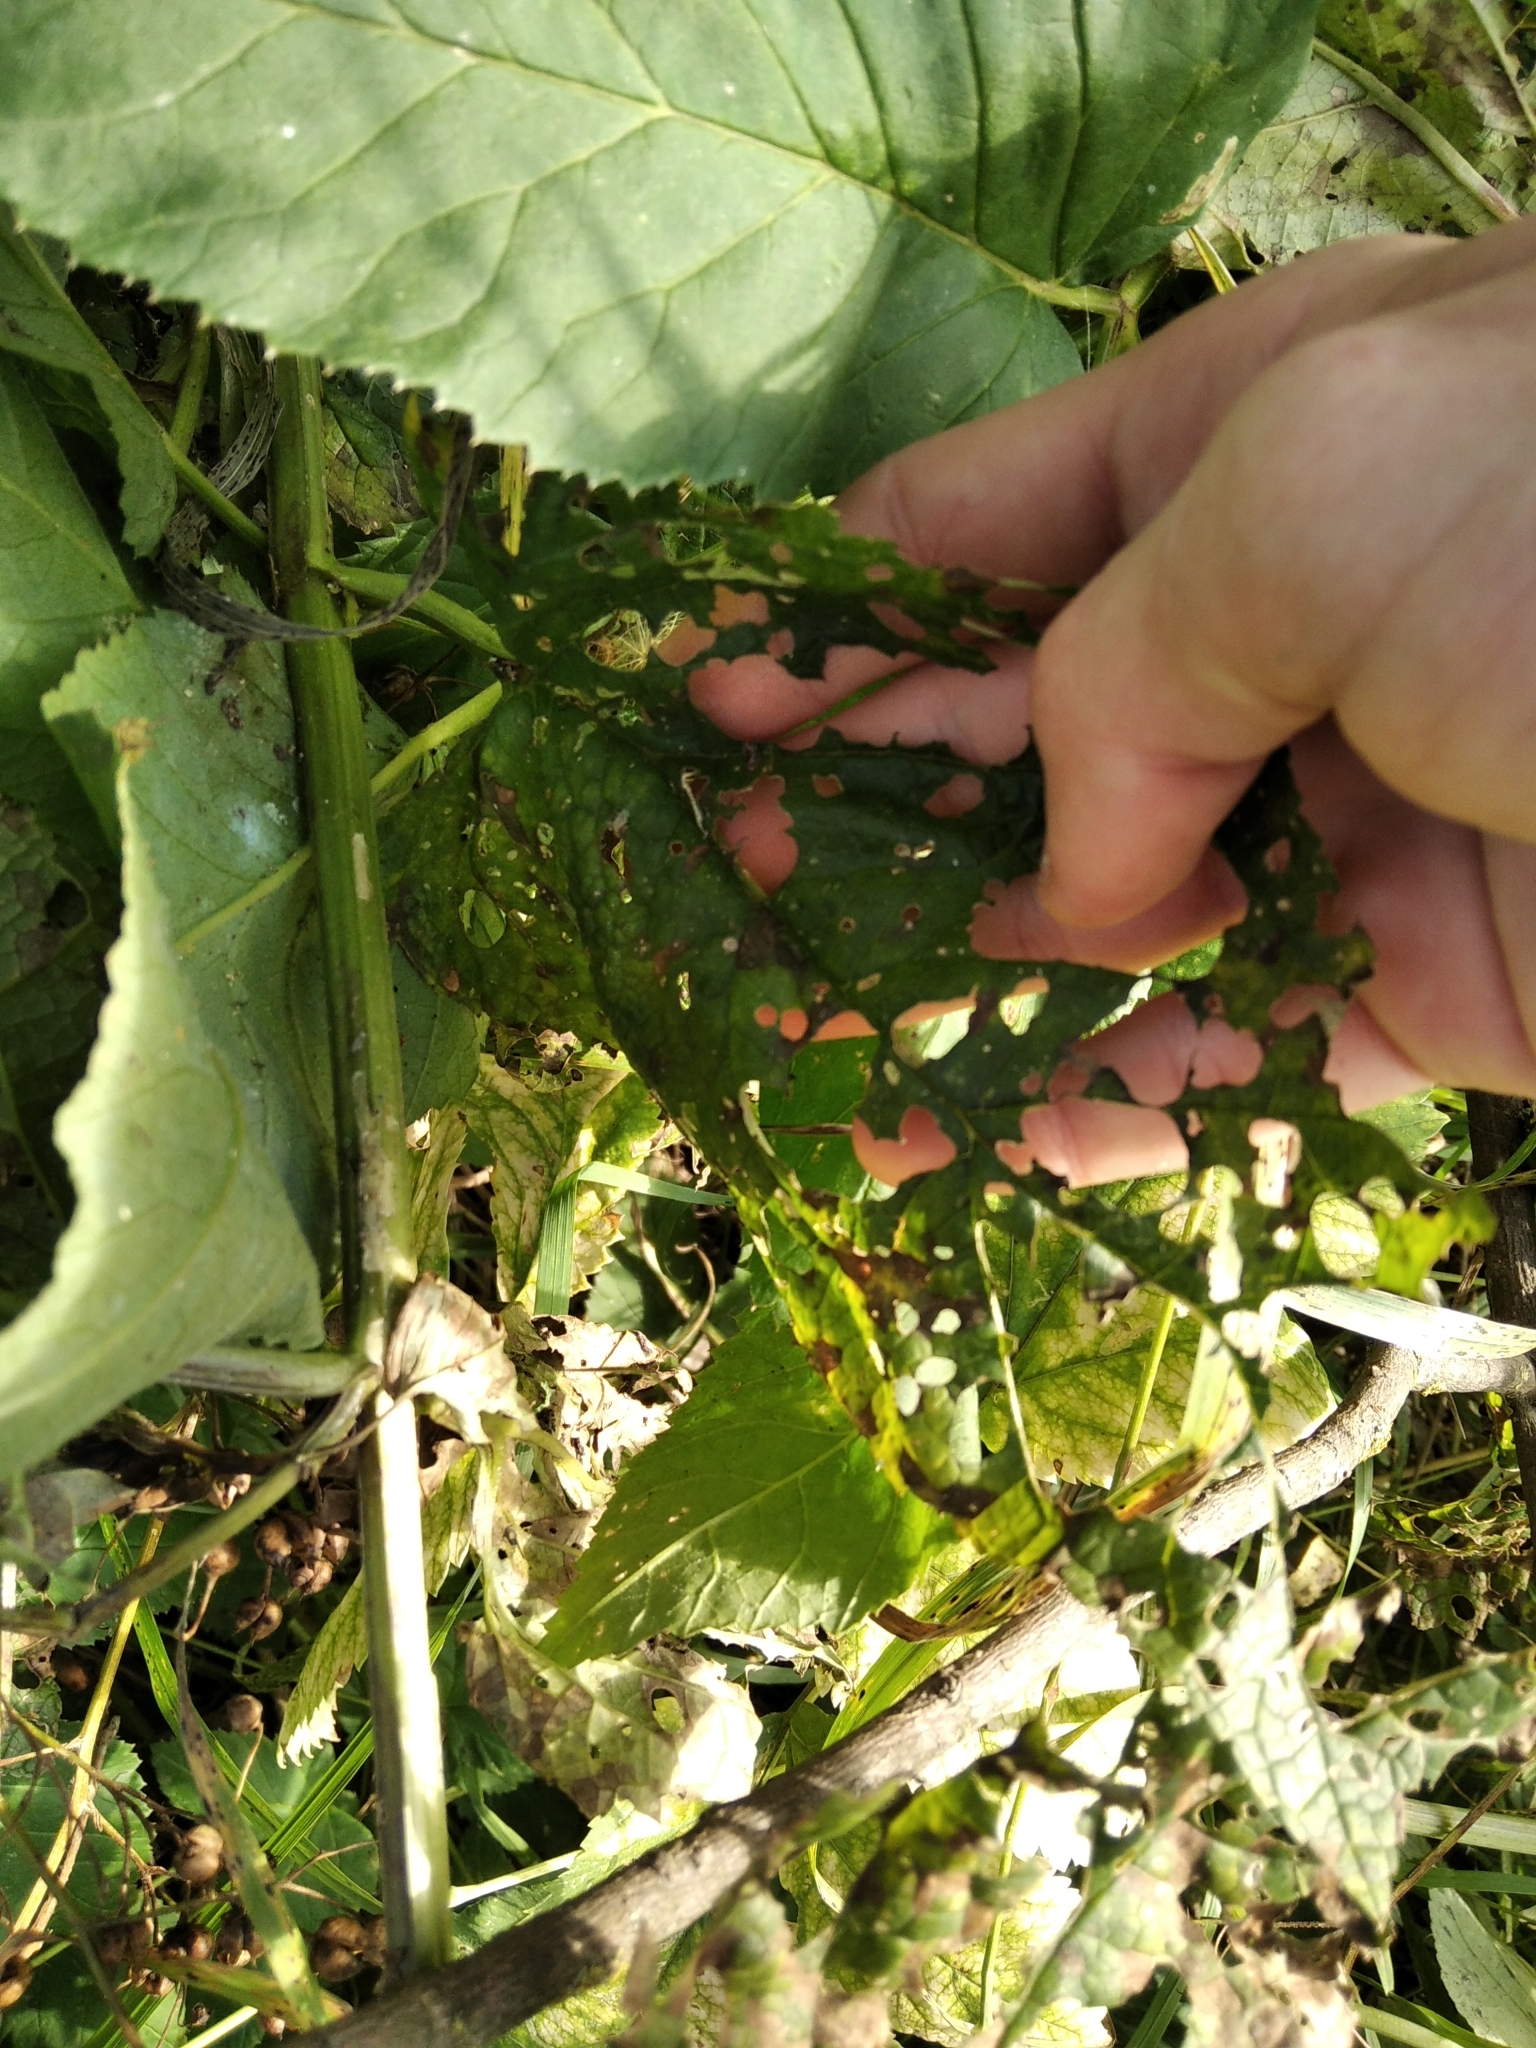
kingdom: Plantae
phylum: Tracheophyta
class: Magnoliopsida
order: Lamiales
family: Scrophulariaceae
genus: Scrophularia
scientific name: Scrophularia nodosa
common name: Common figwort
